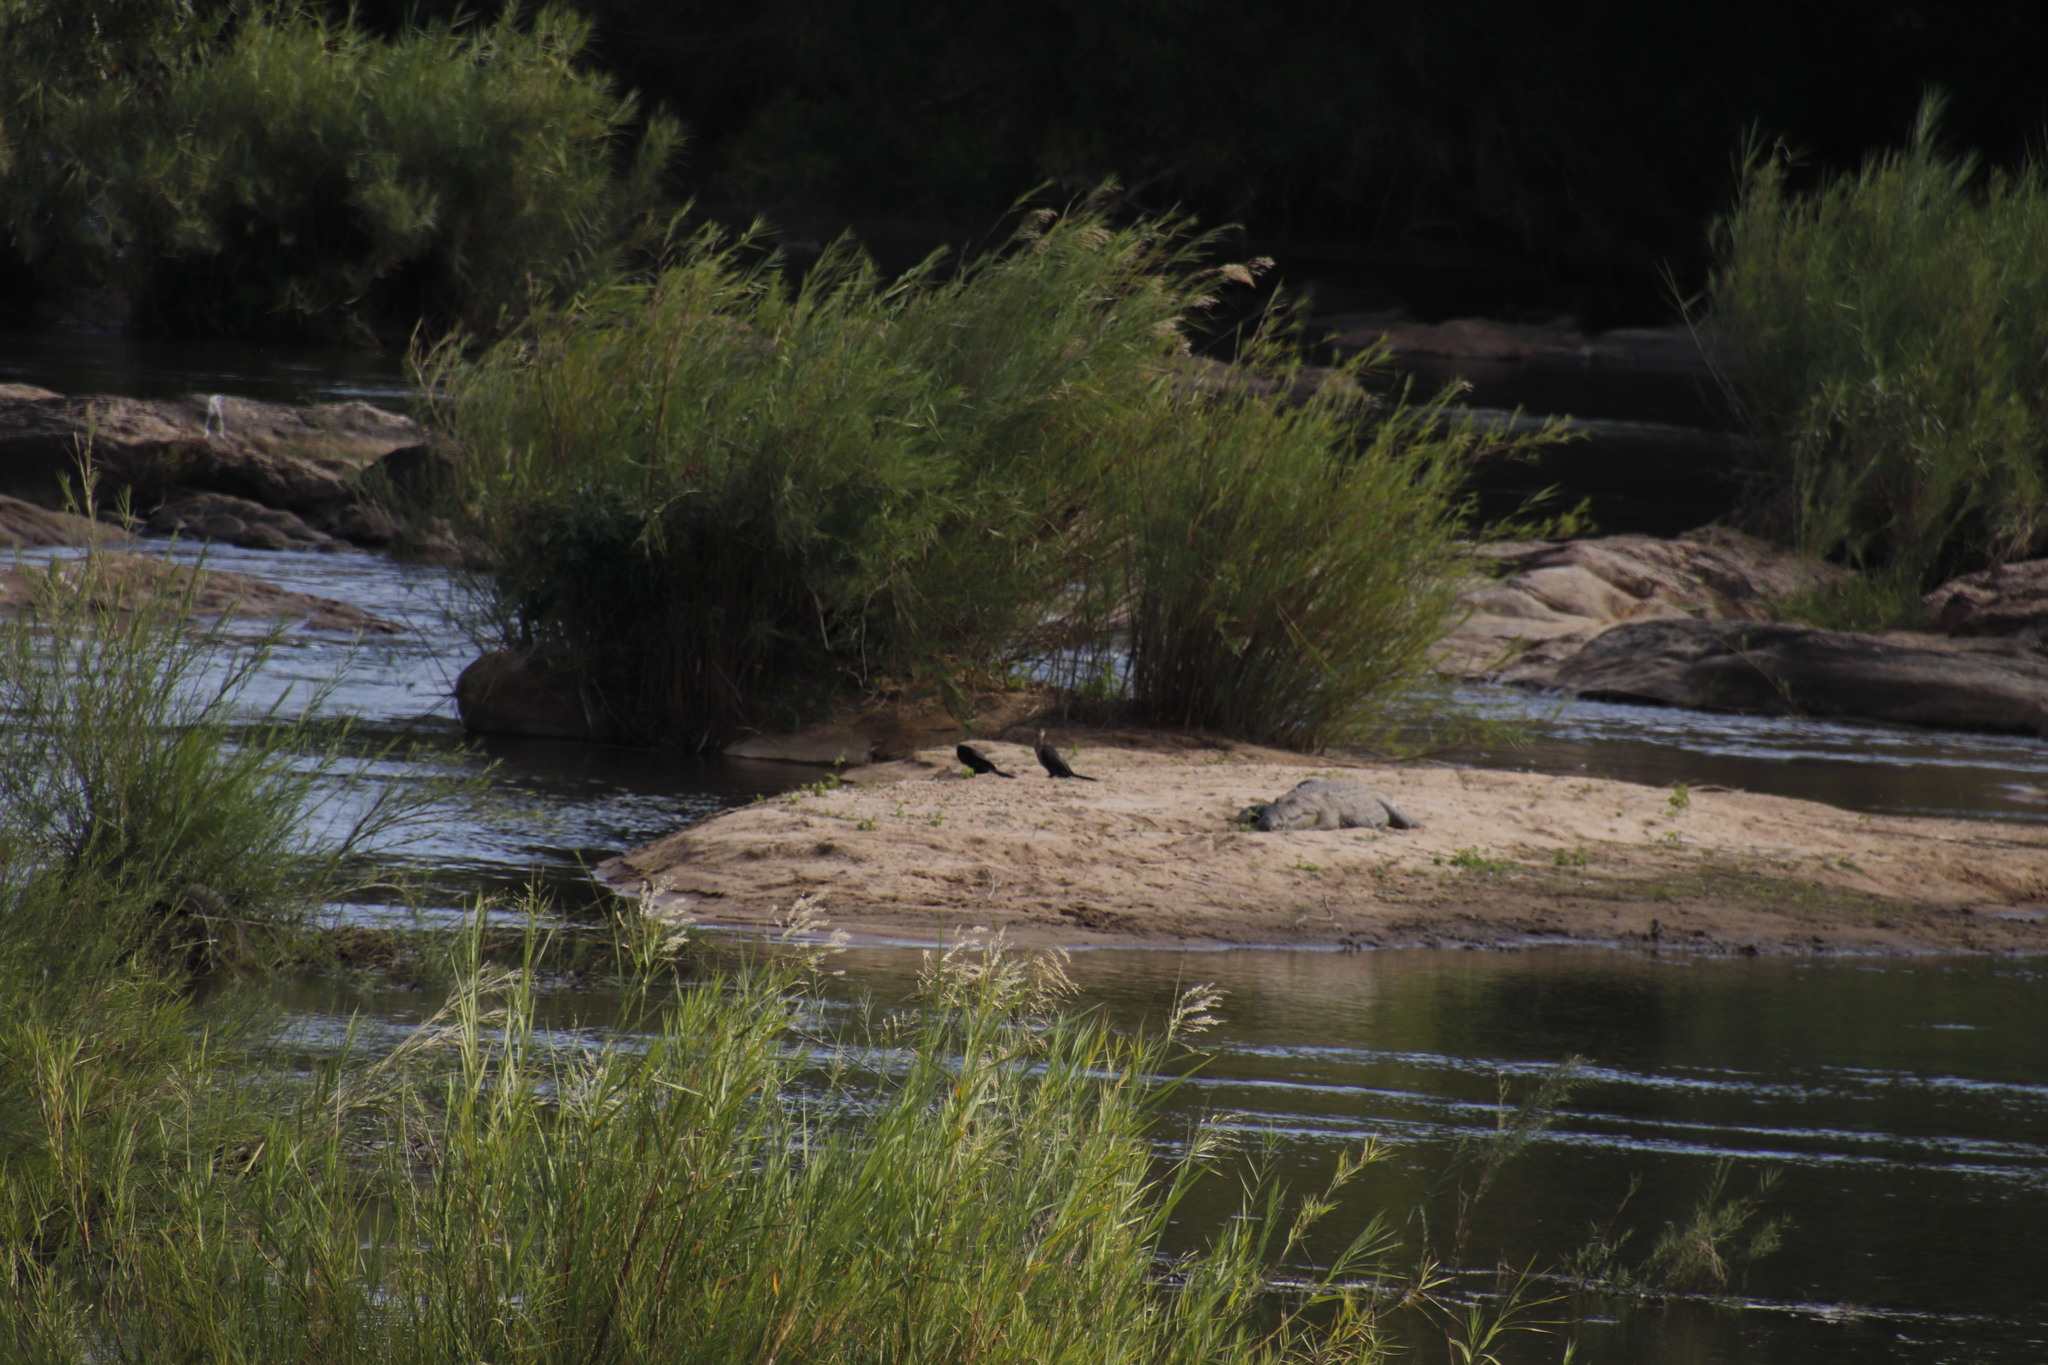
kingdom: Animalia
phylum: Chordata
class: Aves
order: Suliformes
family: Phalacrocoracidae
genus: Microcarbo
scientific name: Microcarbo africanus
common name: Long-tailed cormorant
